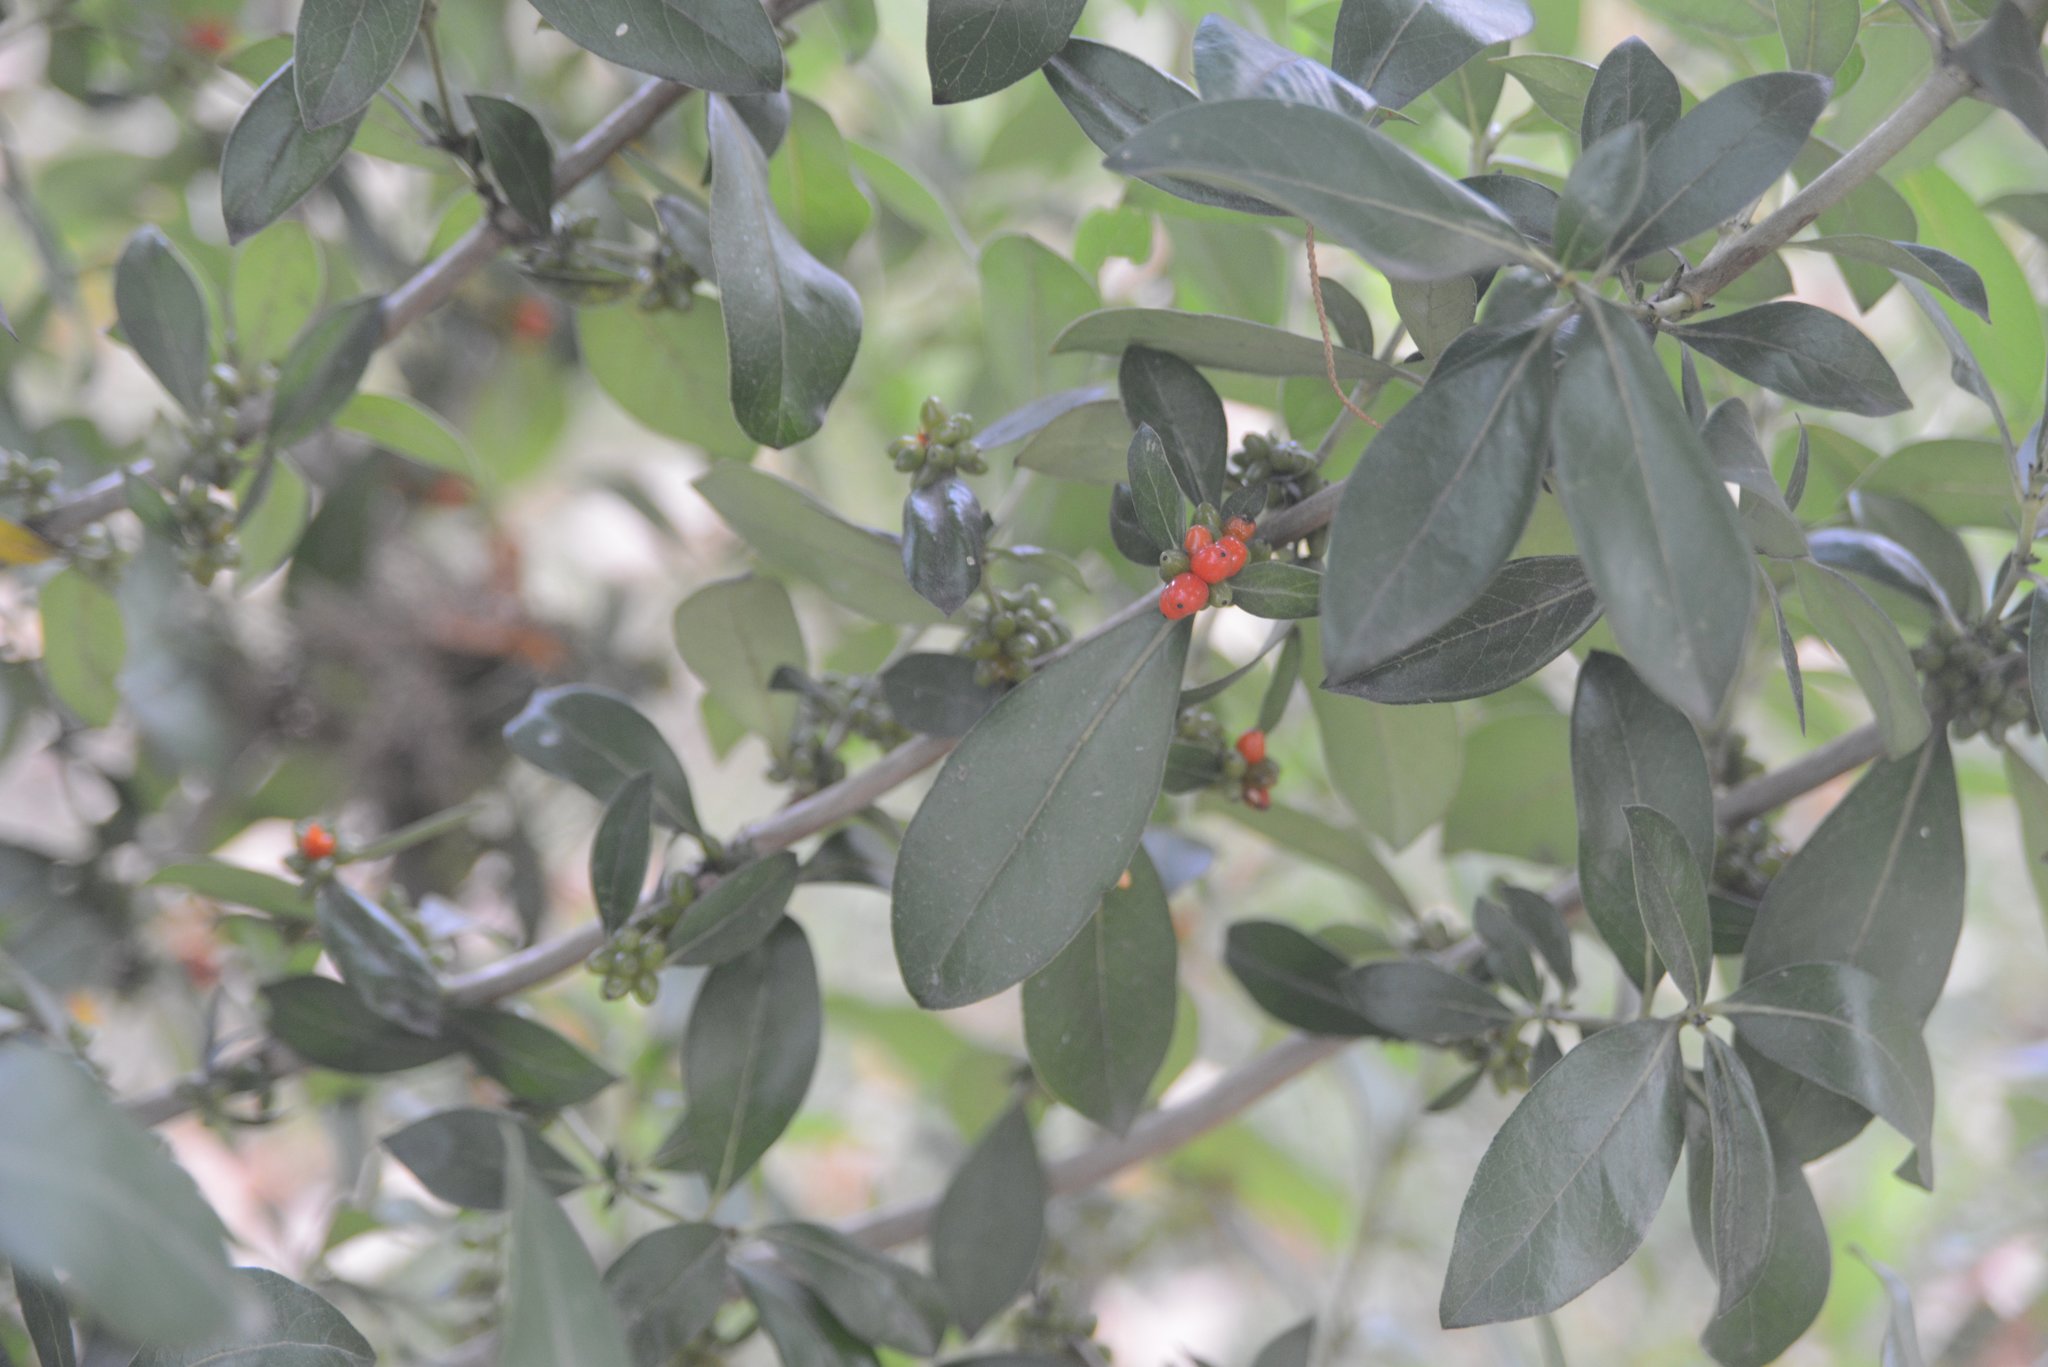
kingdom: Plantae
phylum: Tracheophyta
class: Magnoliopsida
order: Gentianales
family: Rubiaceae
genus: Coprosma
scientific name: Coprosma robusta
